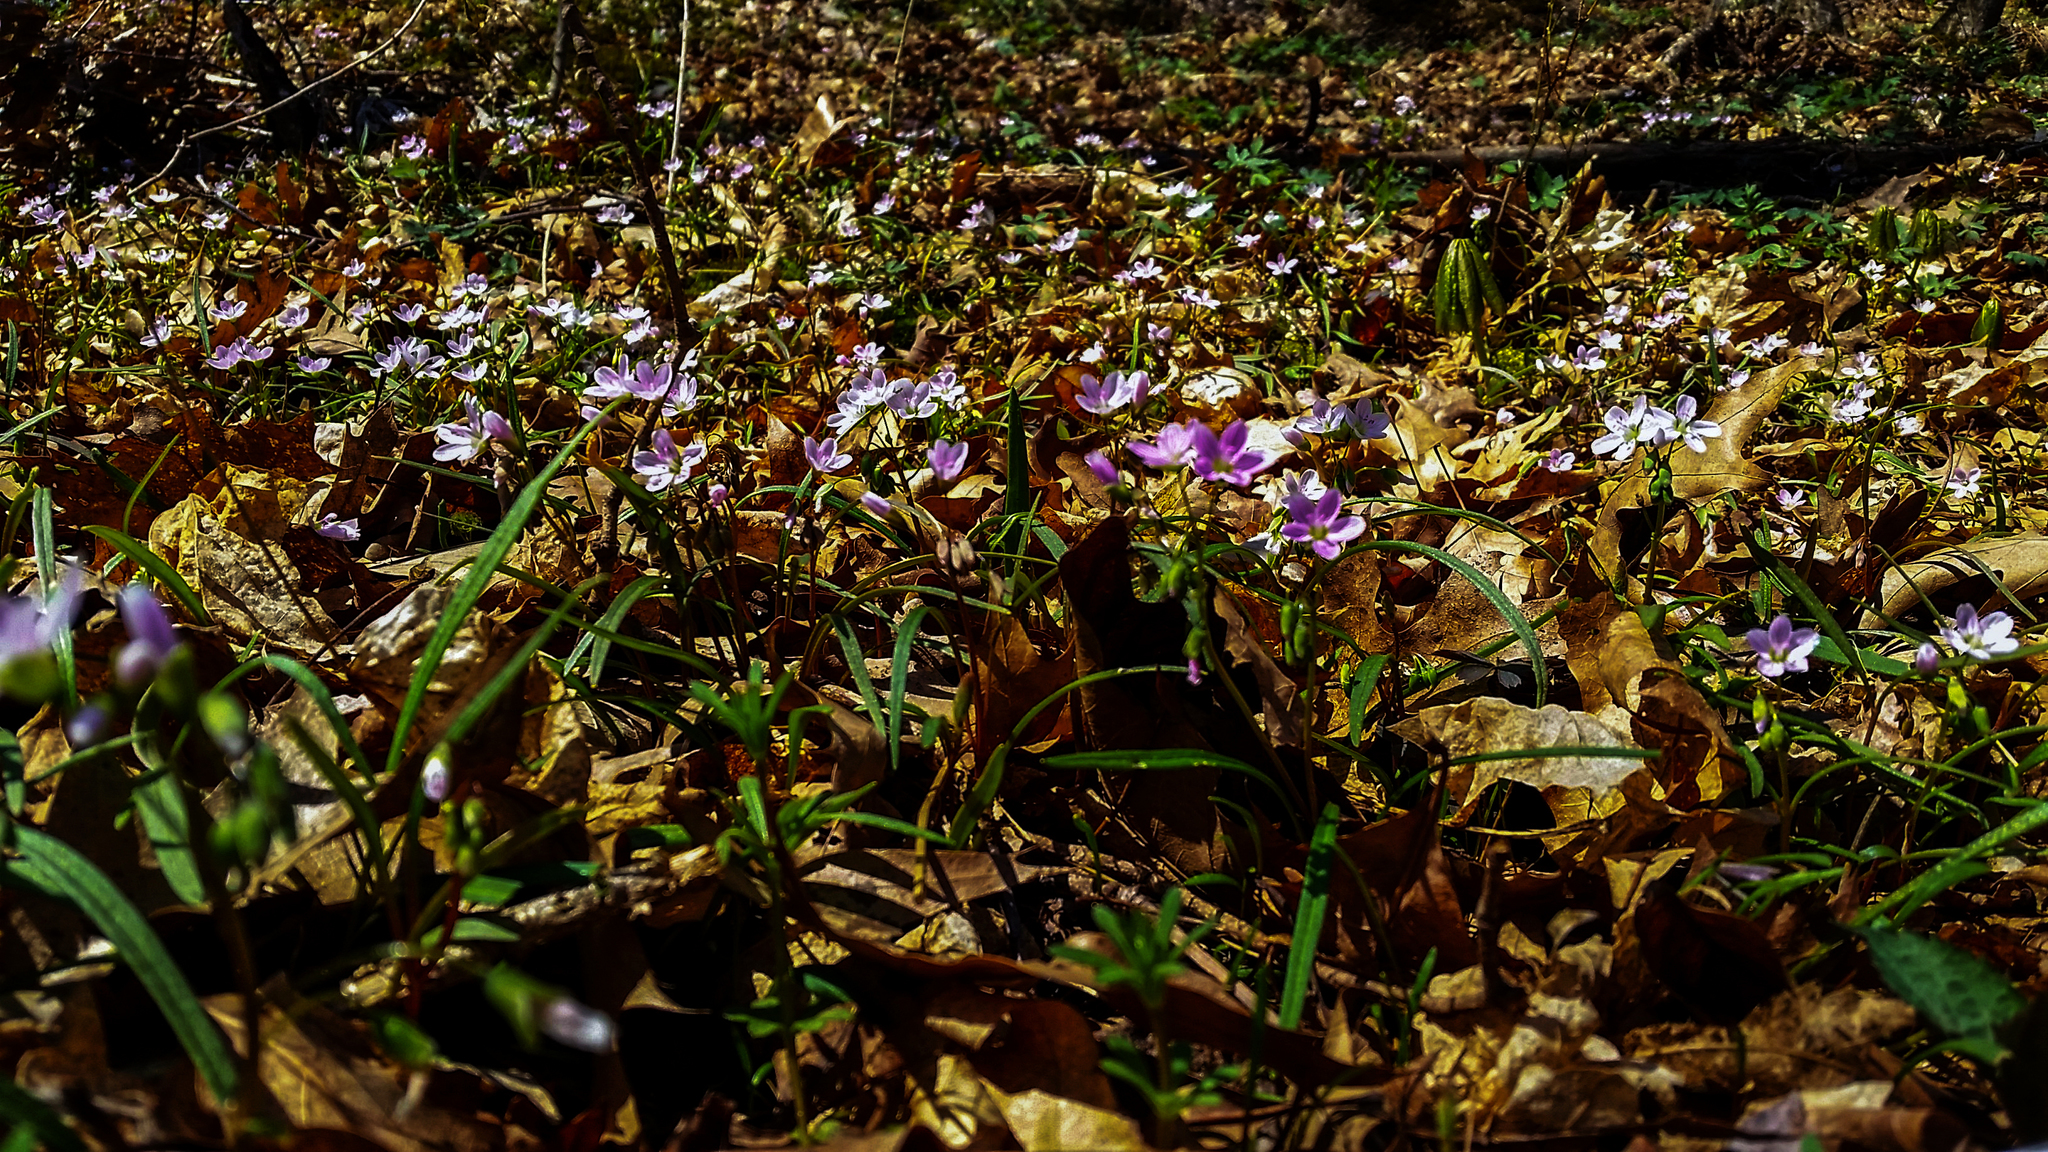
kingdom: Plantae
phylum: Tracheophyta
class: Magnoliopsida
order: Caryophyllales
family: Montiaceae
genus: Claytonia
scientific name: Claytonia virginica
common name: Virginia springbeauty
